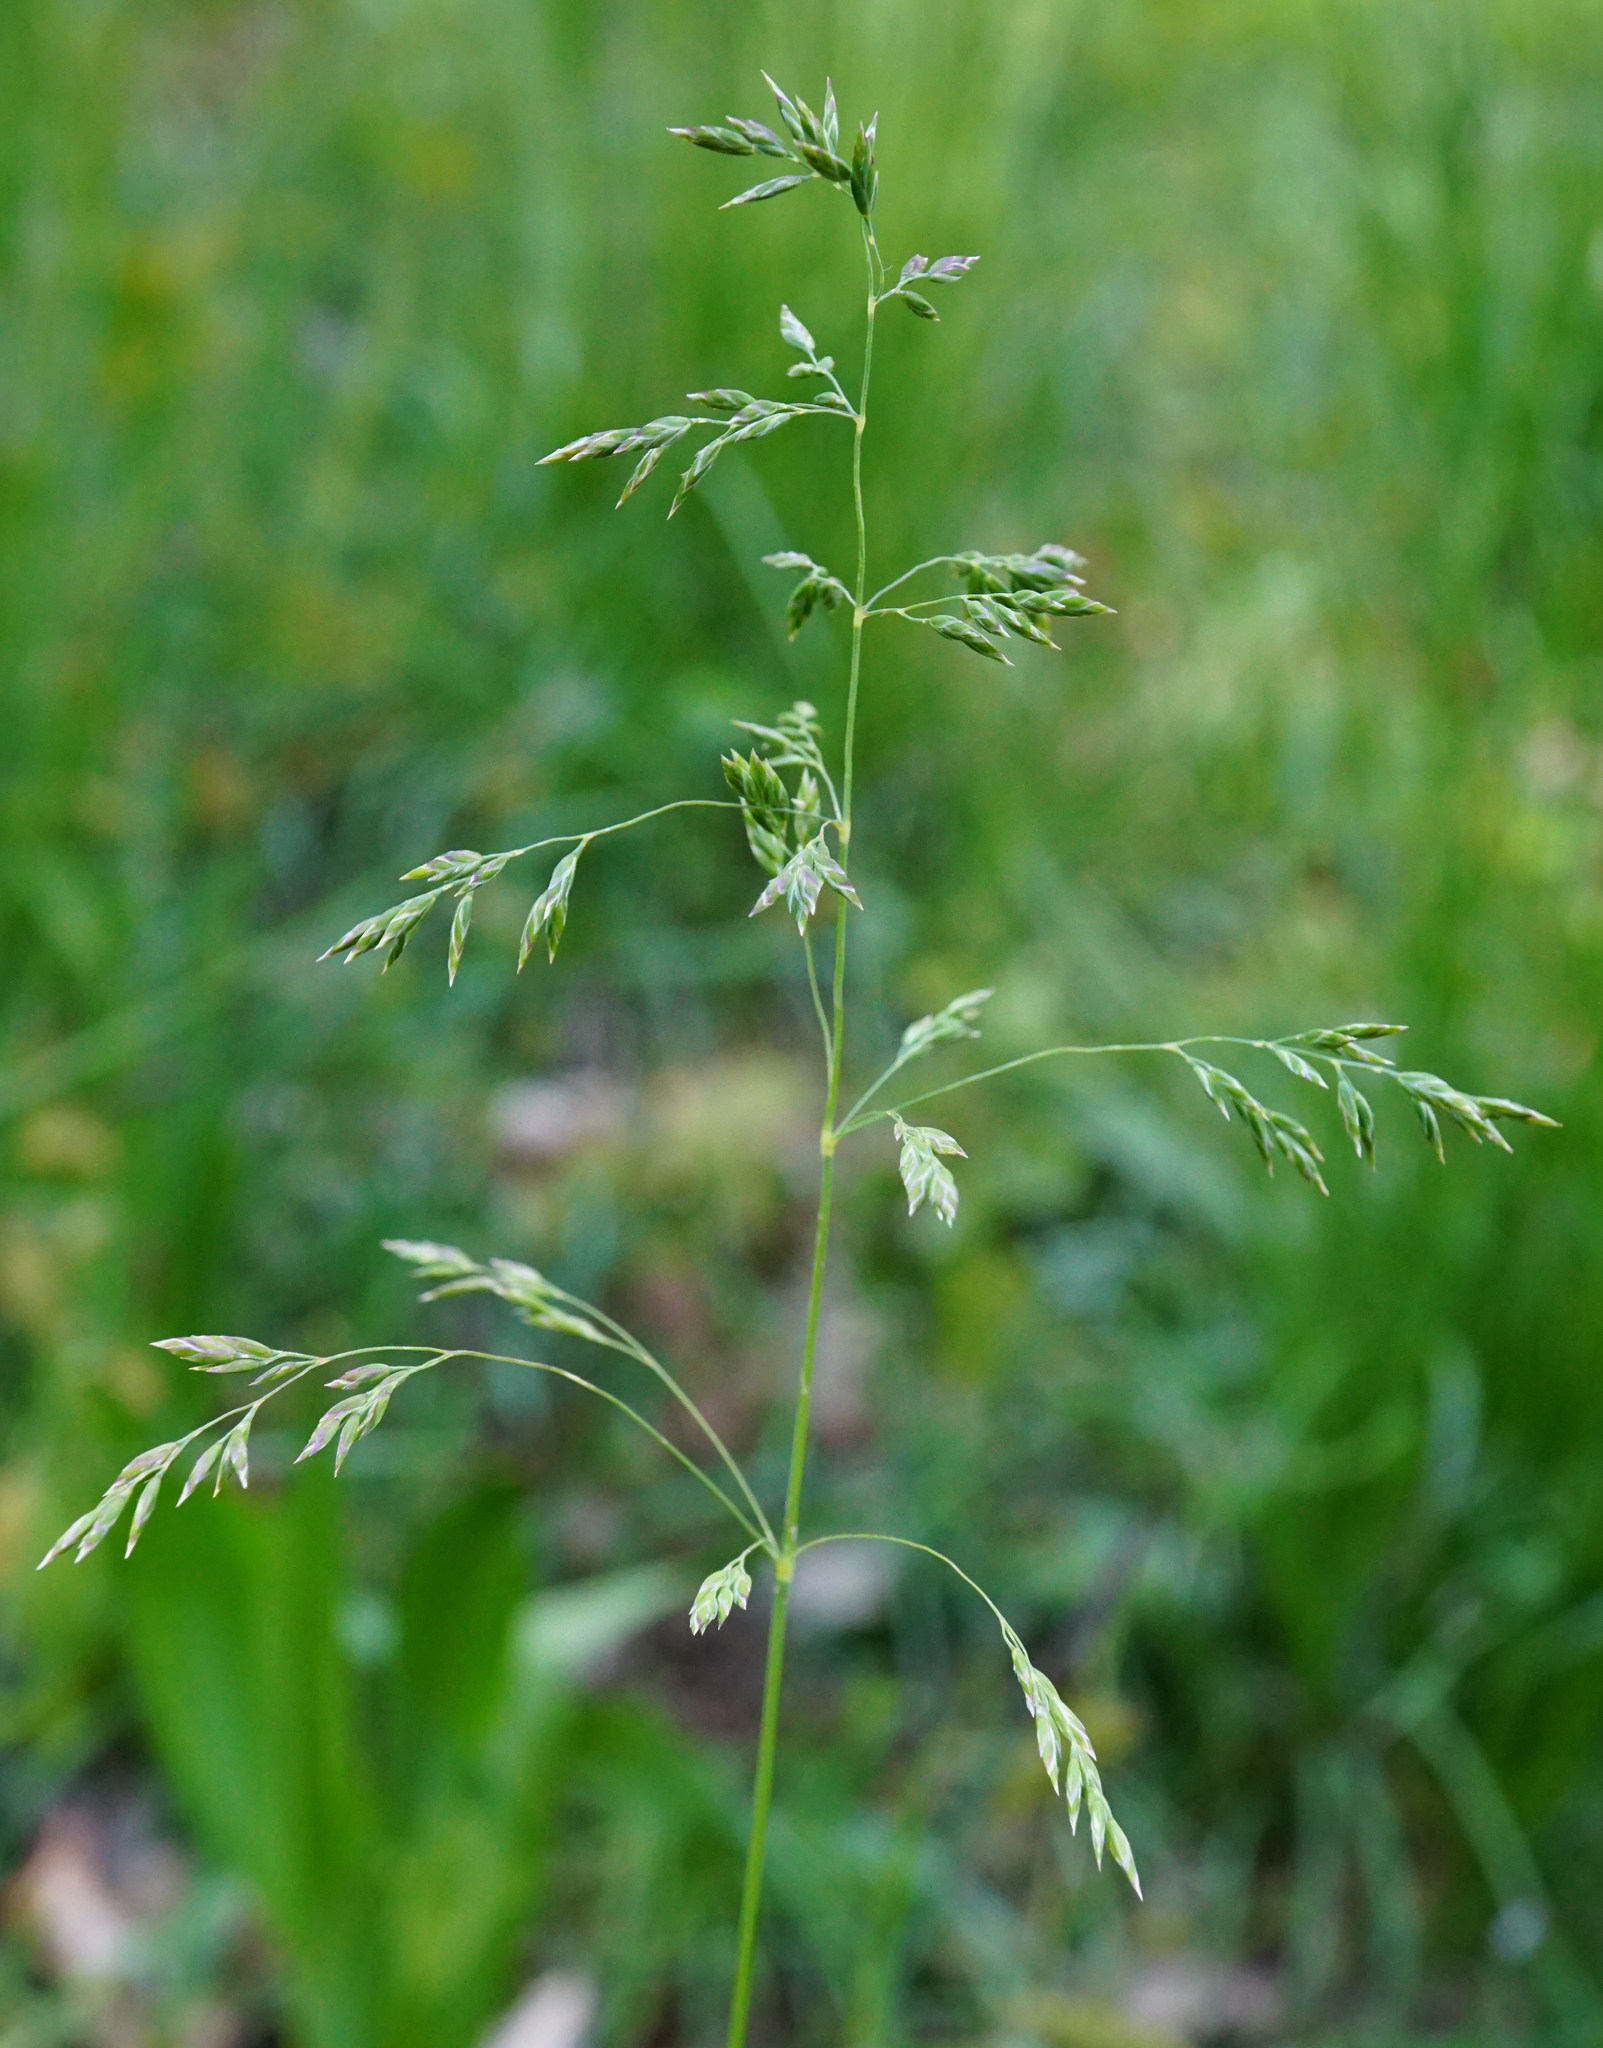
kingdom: Plantae
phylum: Tracheophyta
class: Liliopsida
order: Poales
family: Poaceae
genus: Poa
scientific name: Poa pratensis
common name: Kentucky bluegrass
